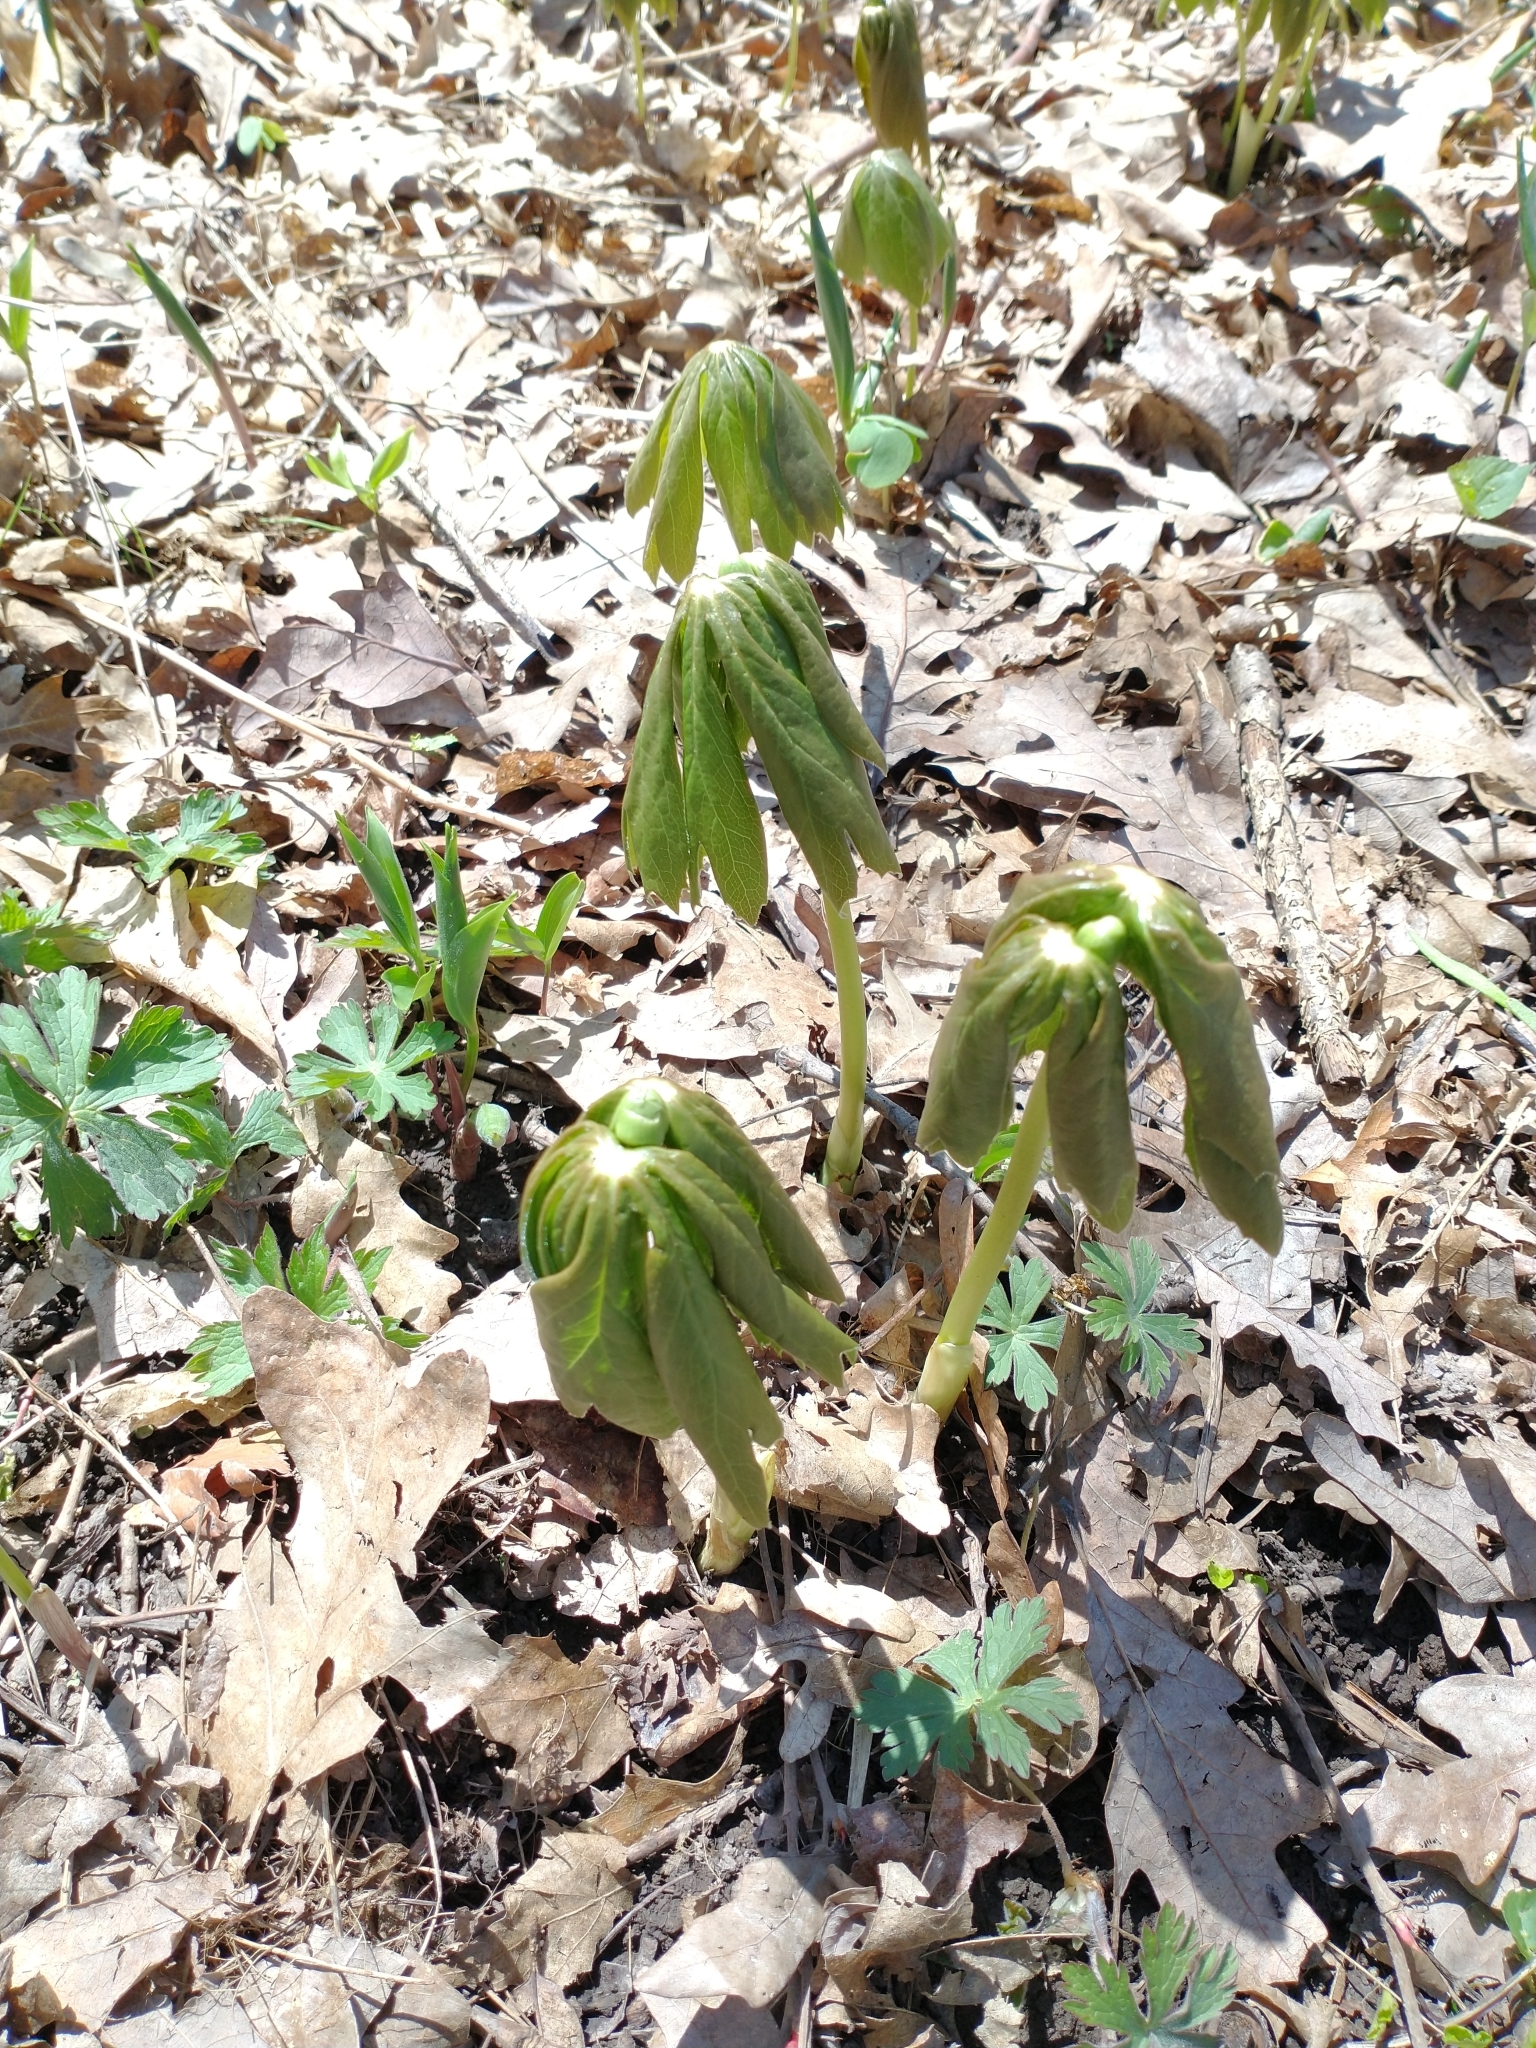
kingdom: Plantae
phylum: Tracheophyta
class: Magnoliopsida
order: Ranunculales
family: Berberidaceae
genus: Podophyllum
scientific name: Podophyllum peltatum
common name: Wild mandrake
